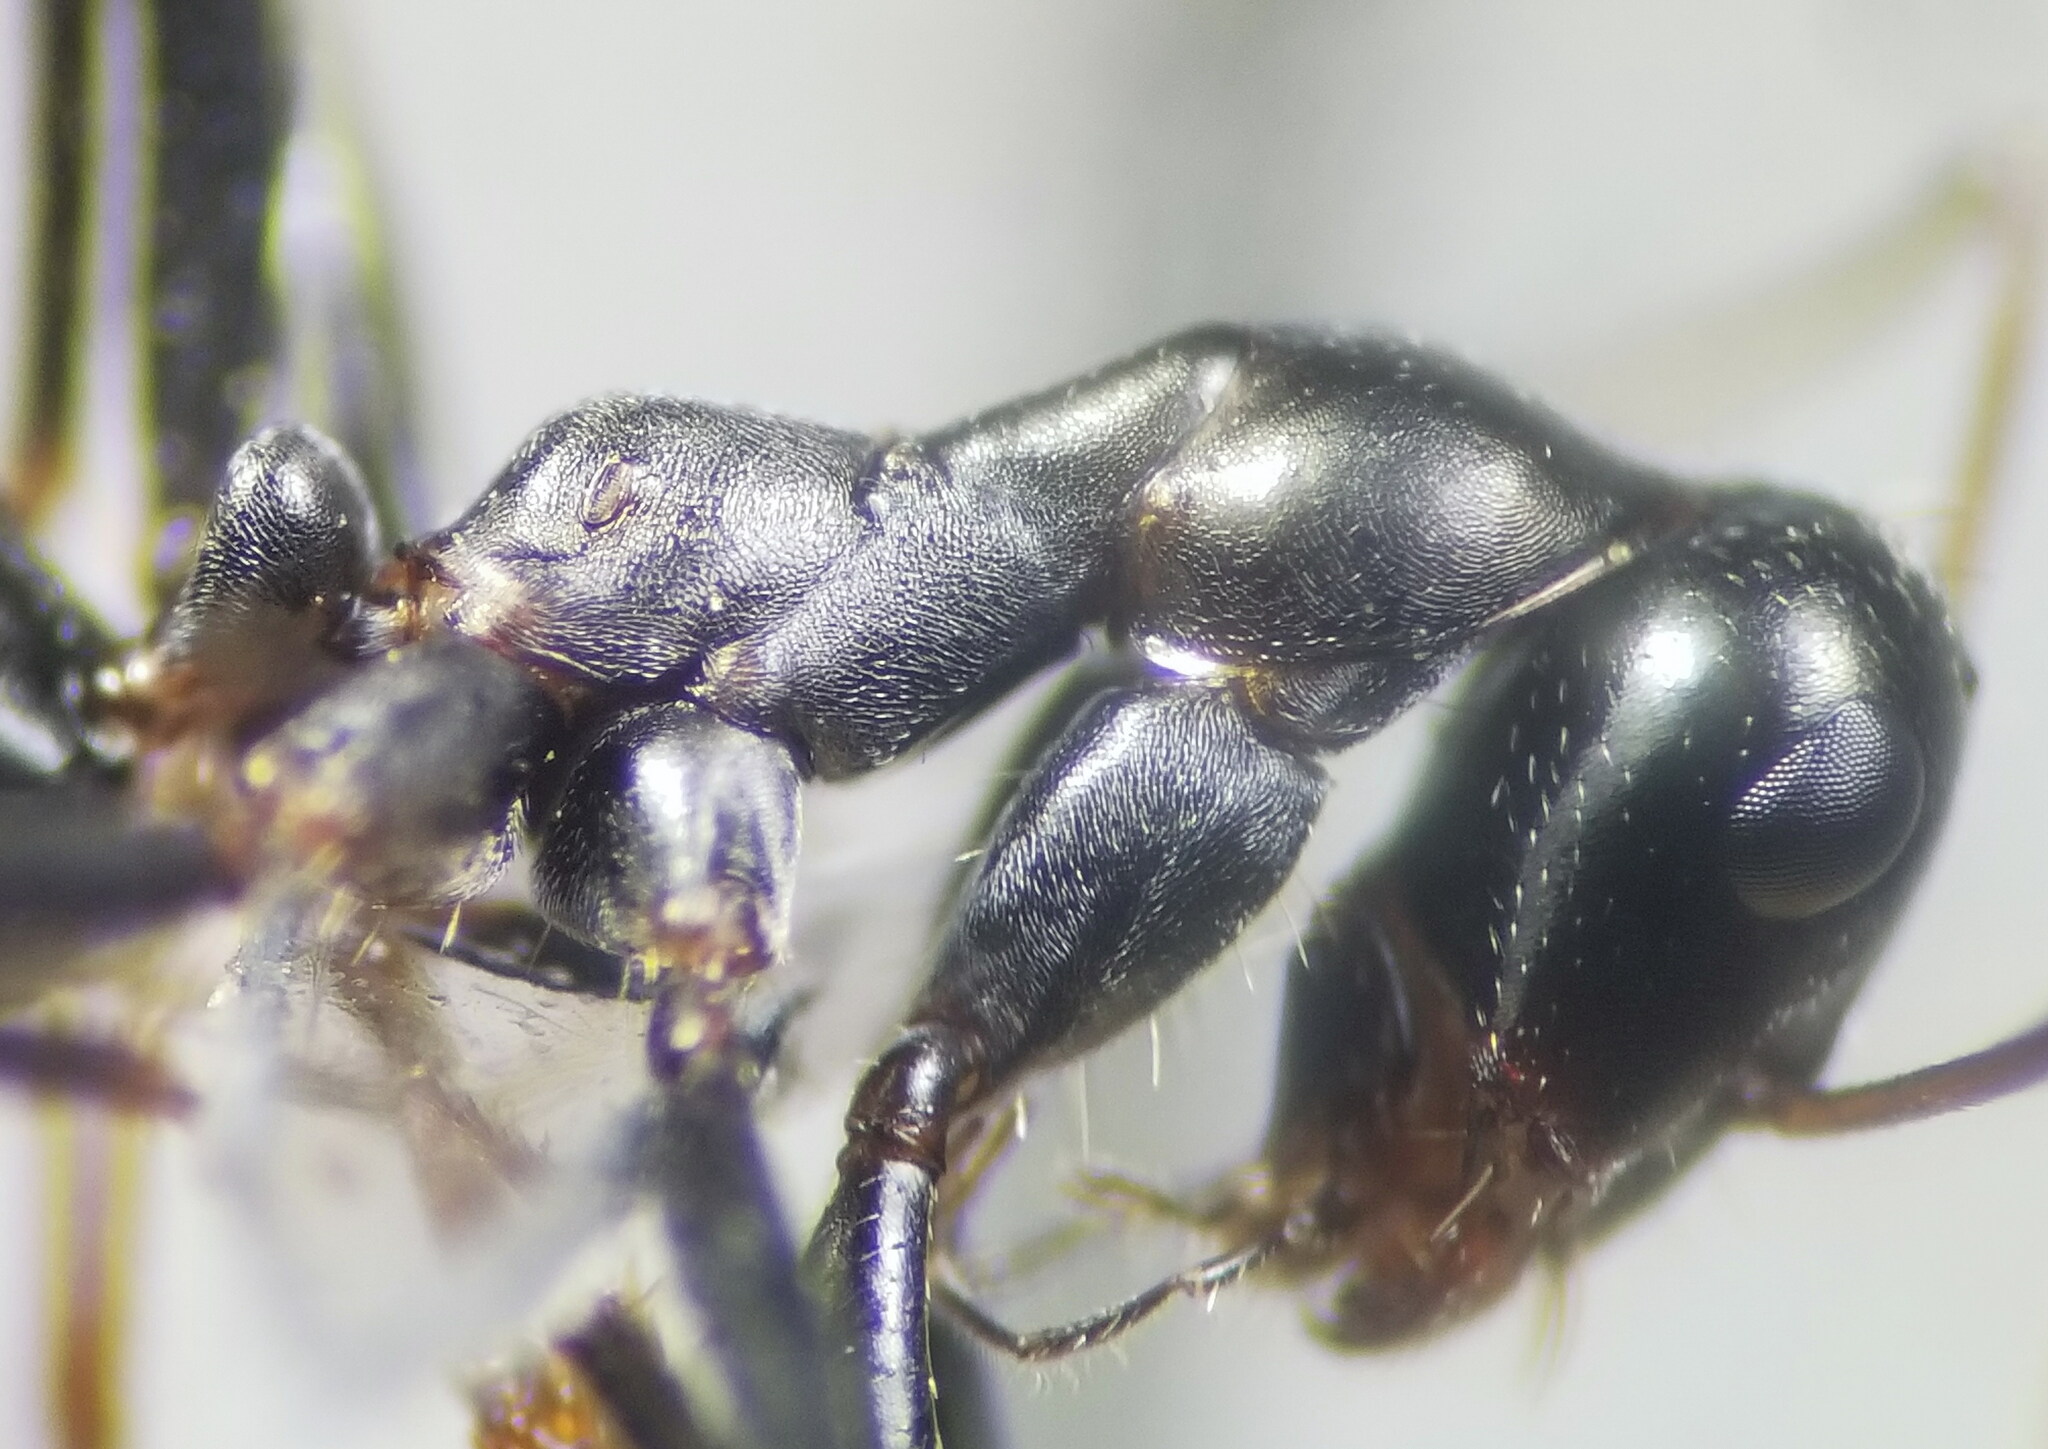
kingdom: Animalia
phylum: Arthropoda
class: Insecta
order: Hymenoptera
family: Formicidae
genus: Cataglyphis
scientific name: Cataglyphis piliscapus
